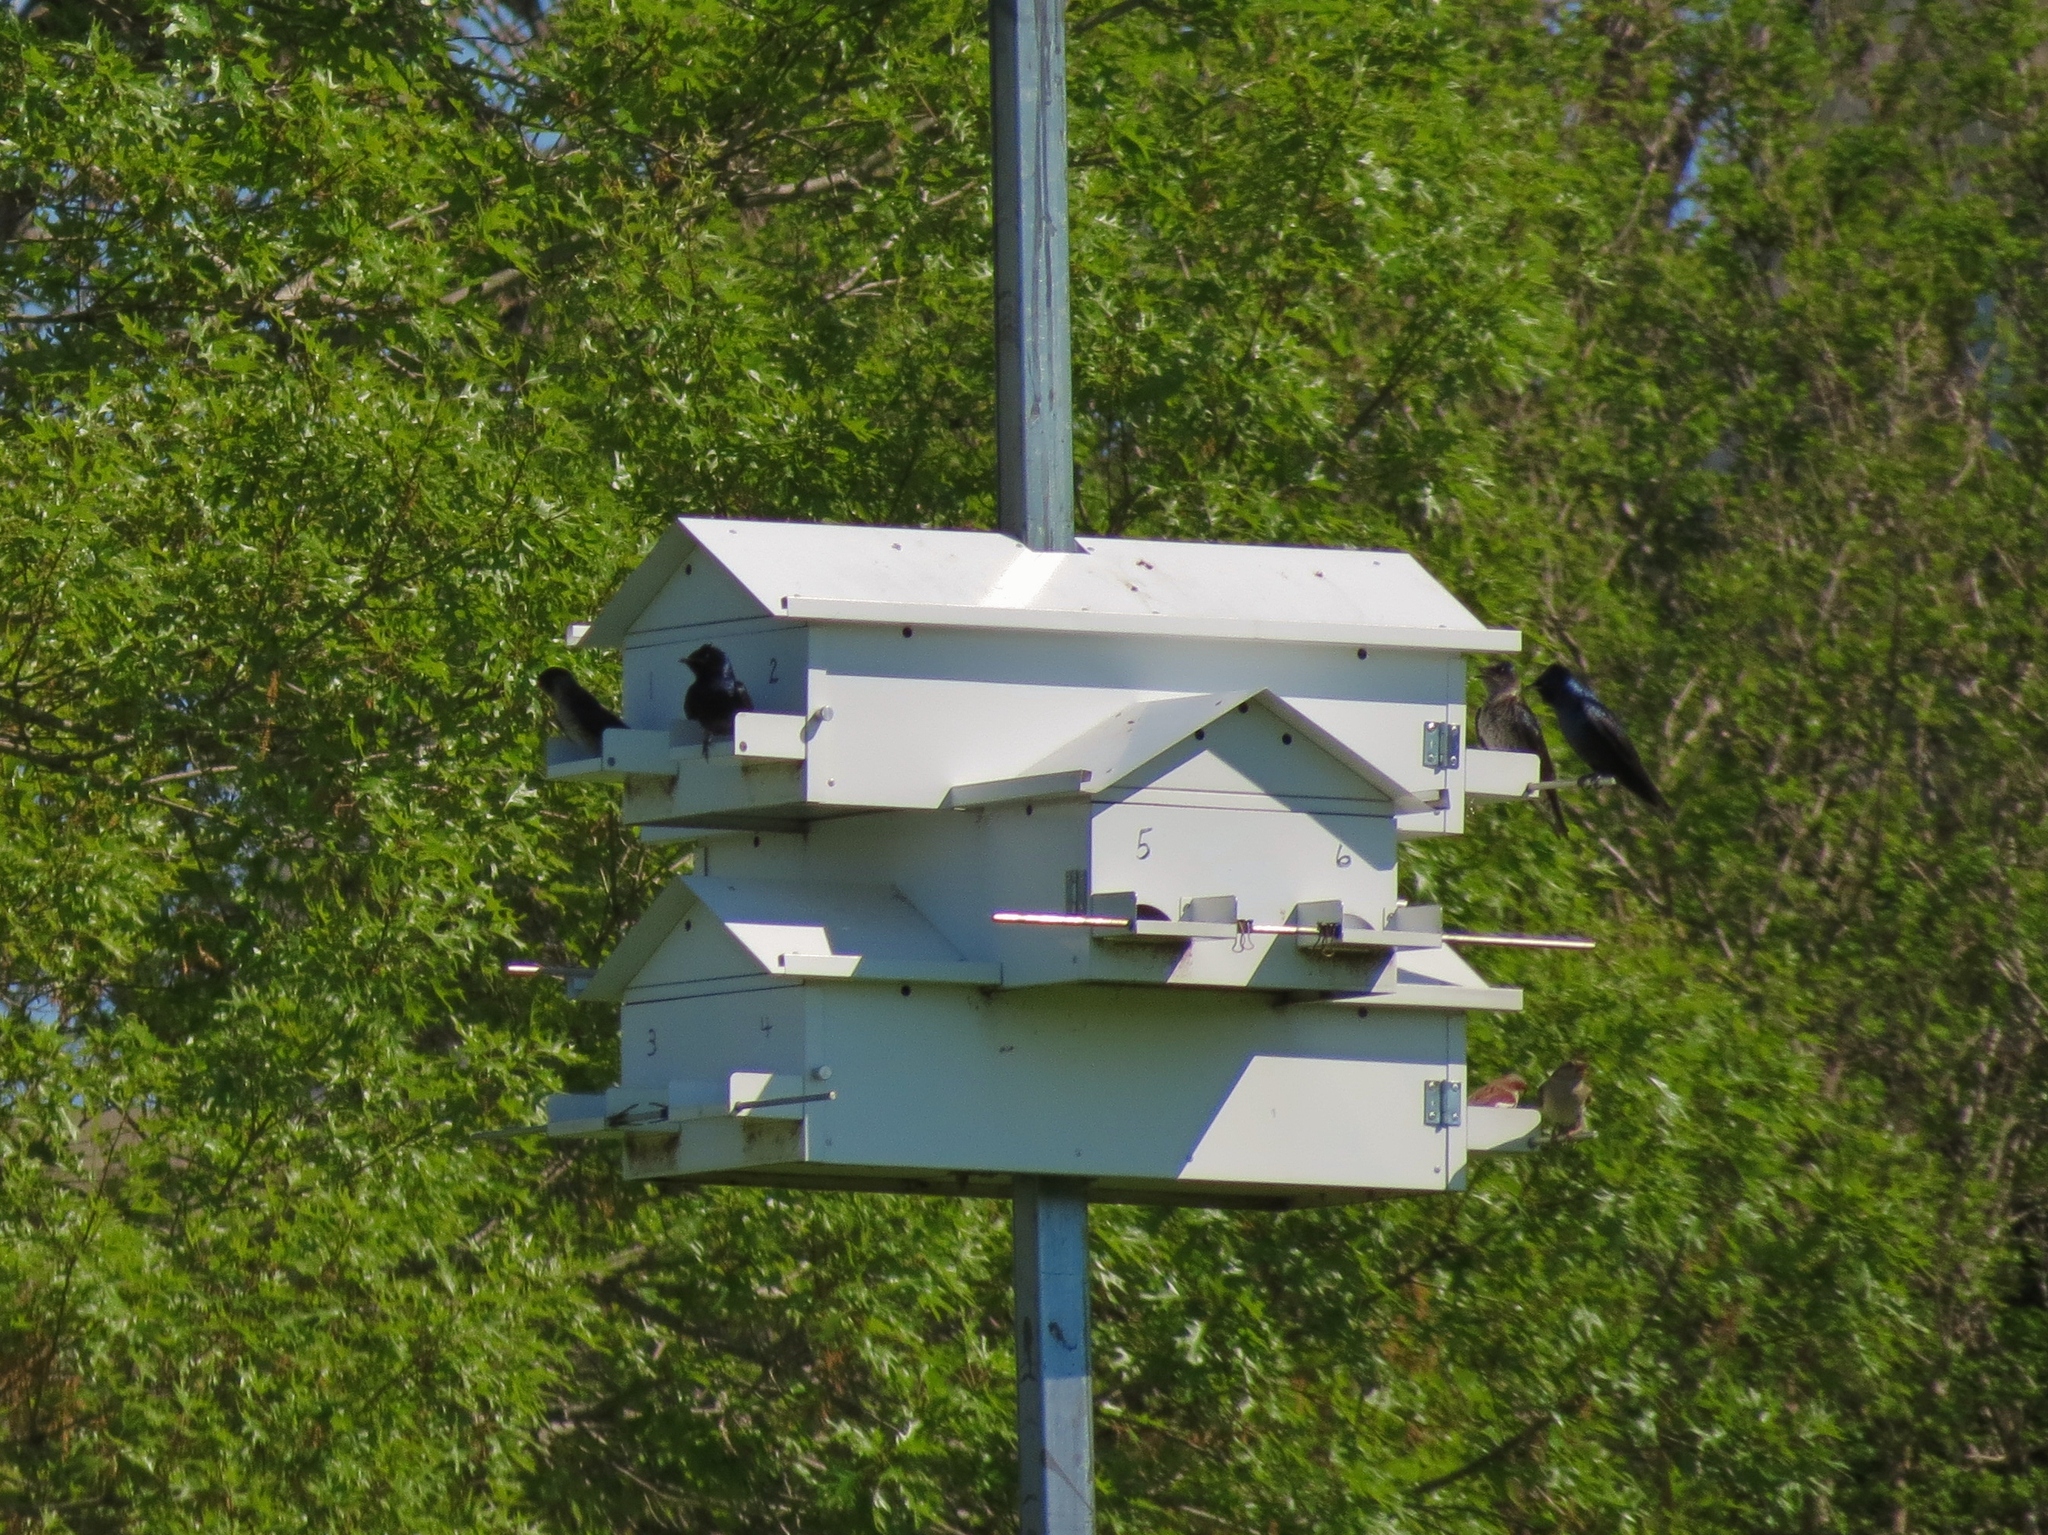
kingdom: Animalia
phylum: Chordata
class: Aves
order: Passeriformes
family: Hirundinidae
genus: Progne
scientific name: Progne subis
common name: Purple martin
